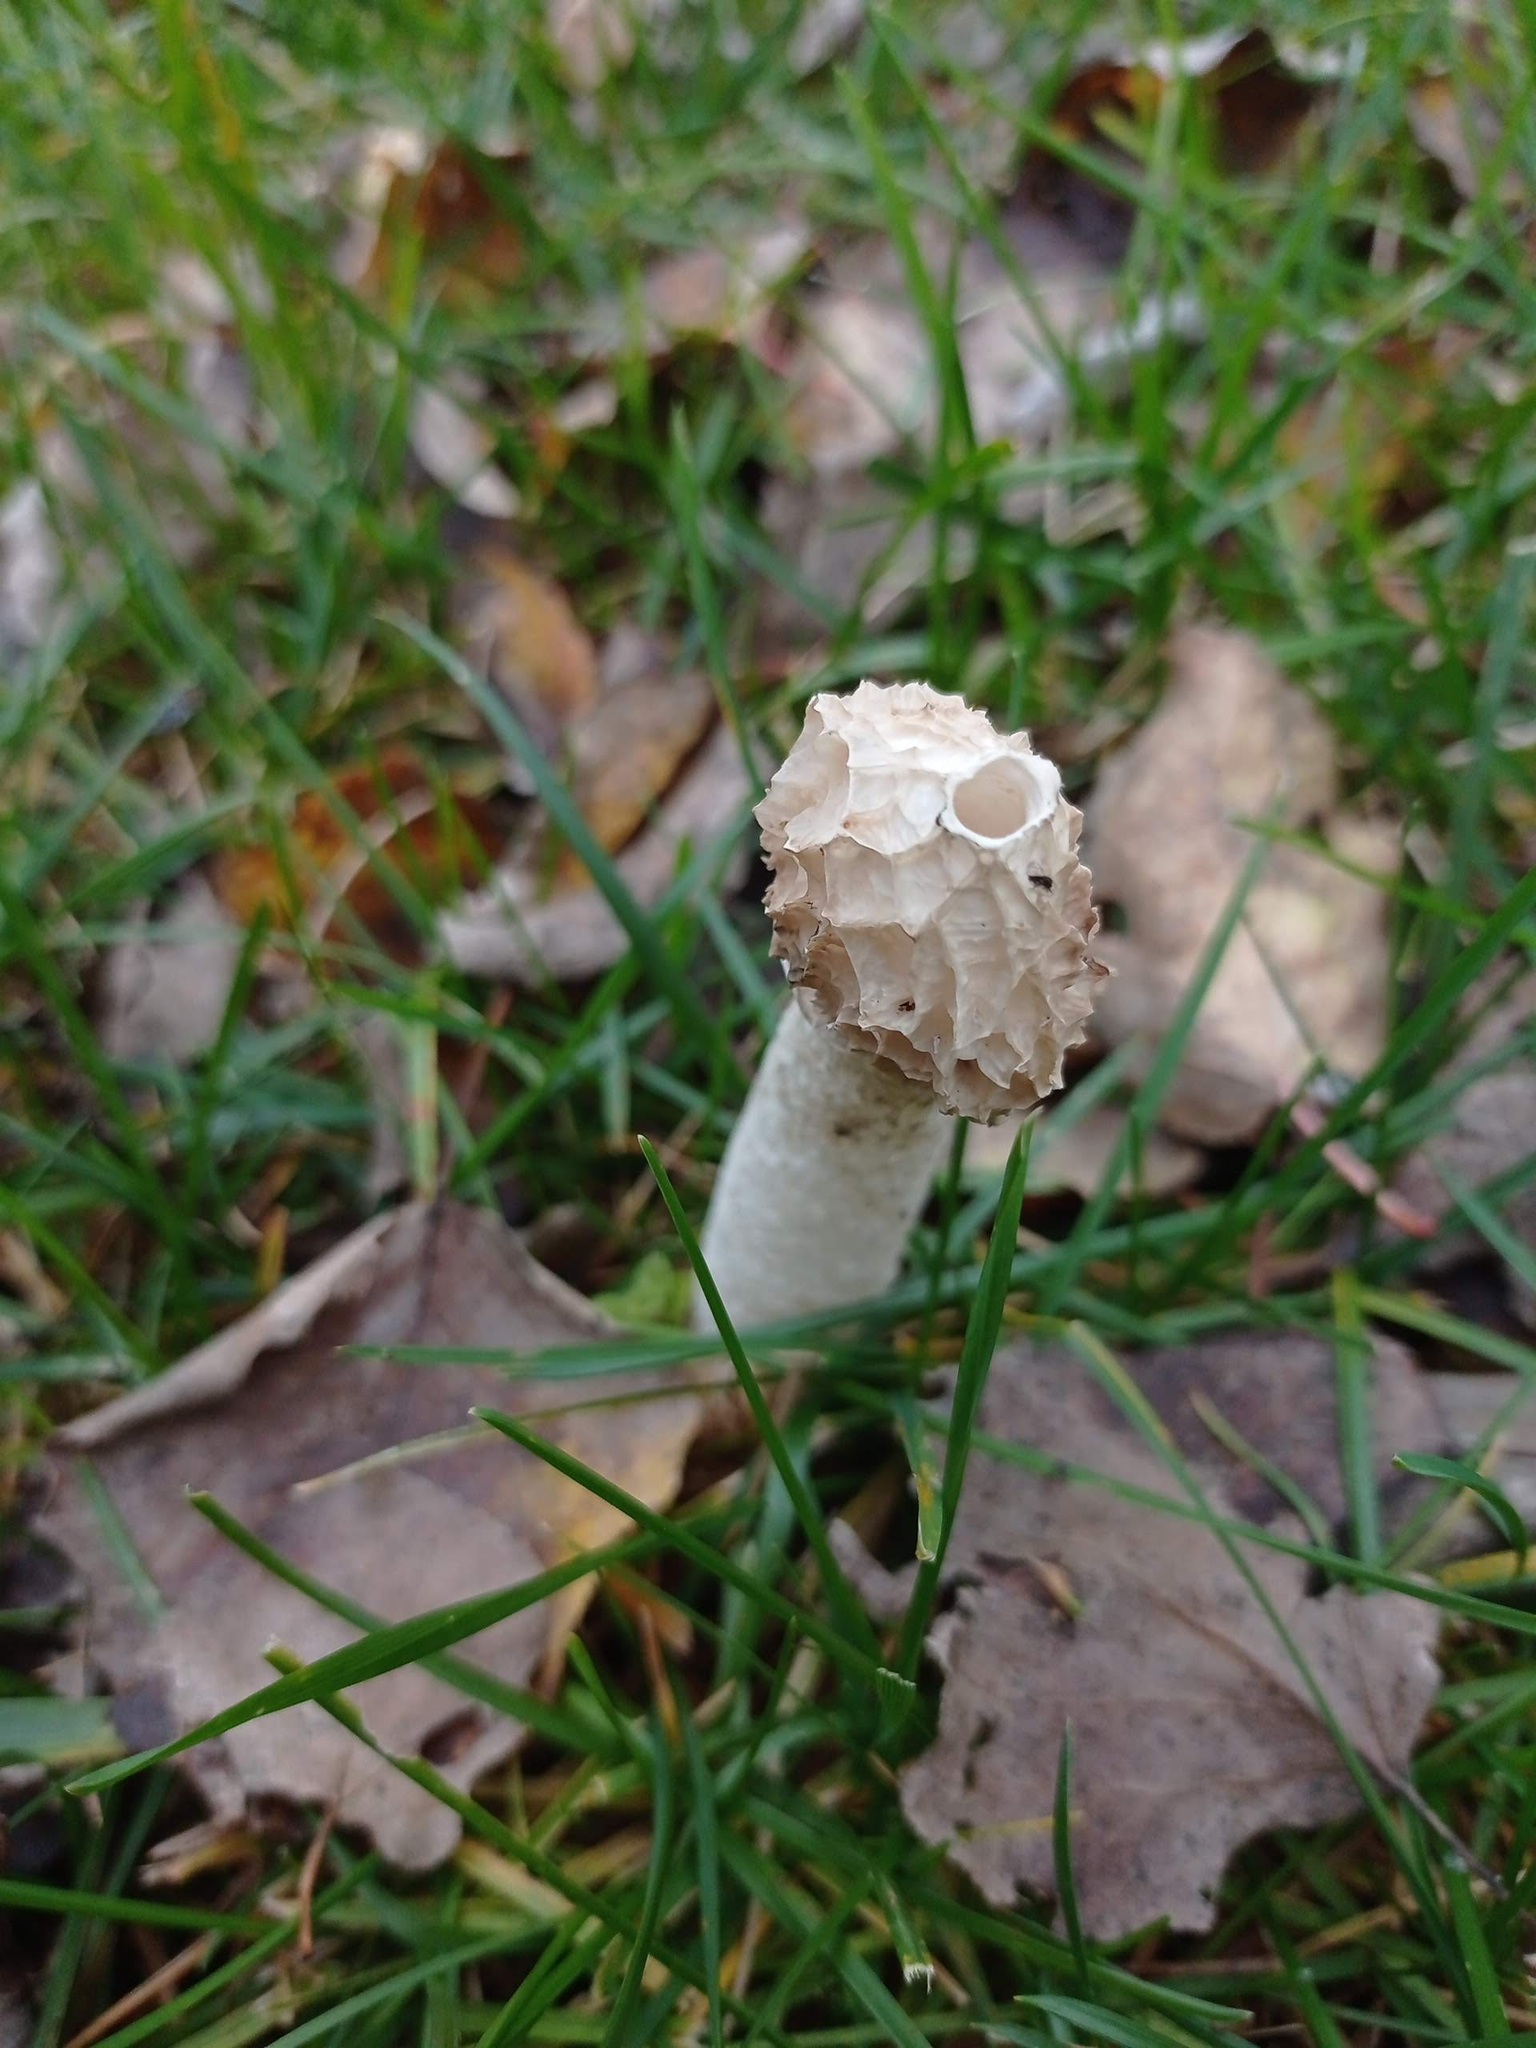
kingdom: Fungi
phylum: Basidiomycota
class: Agaricomycetes
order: Phallales
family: Phallaceae
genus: Phallus
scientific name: Phallus impudicus
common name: Common stinkhorn
